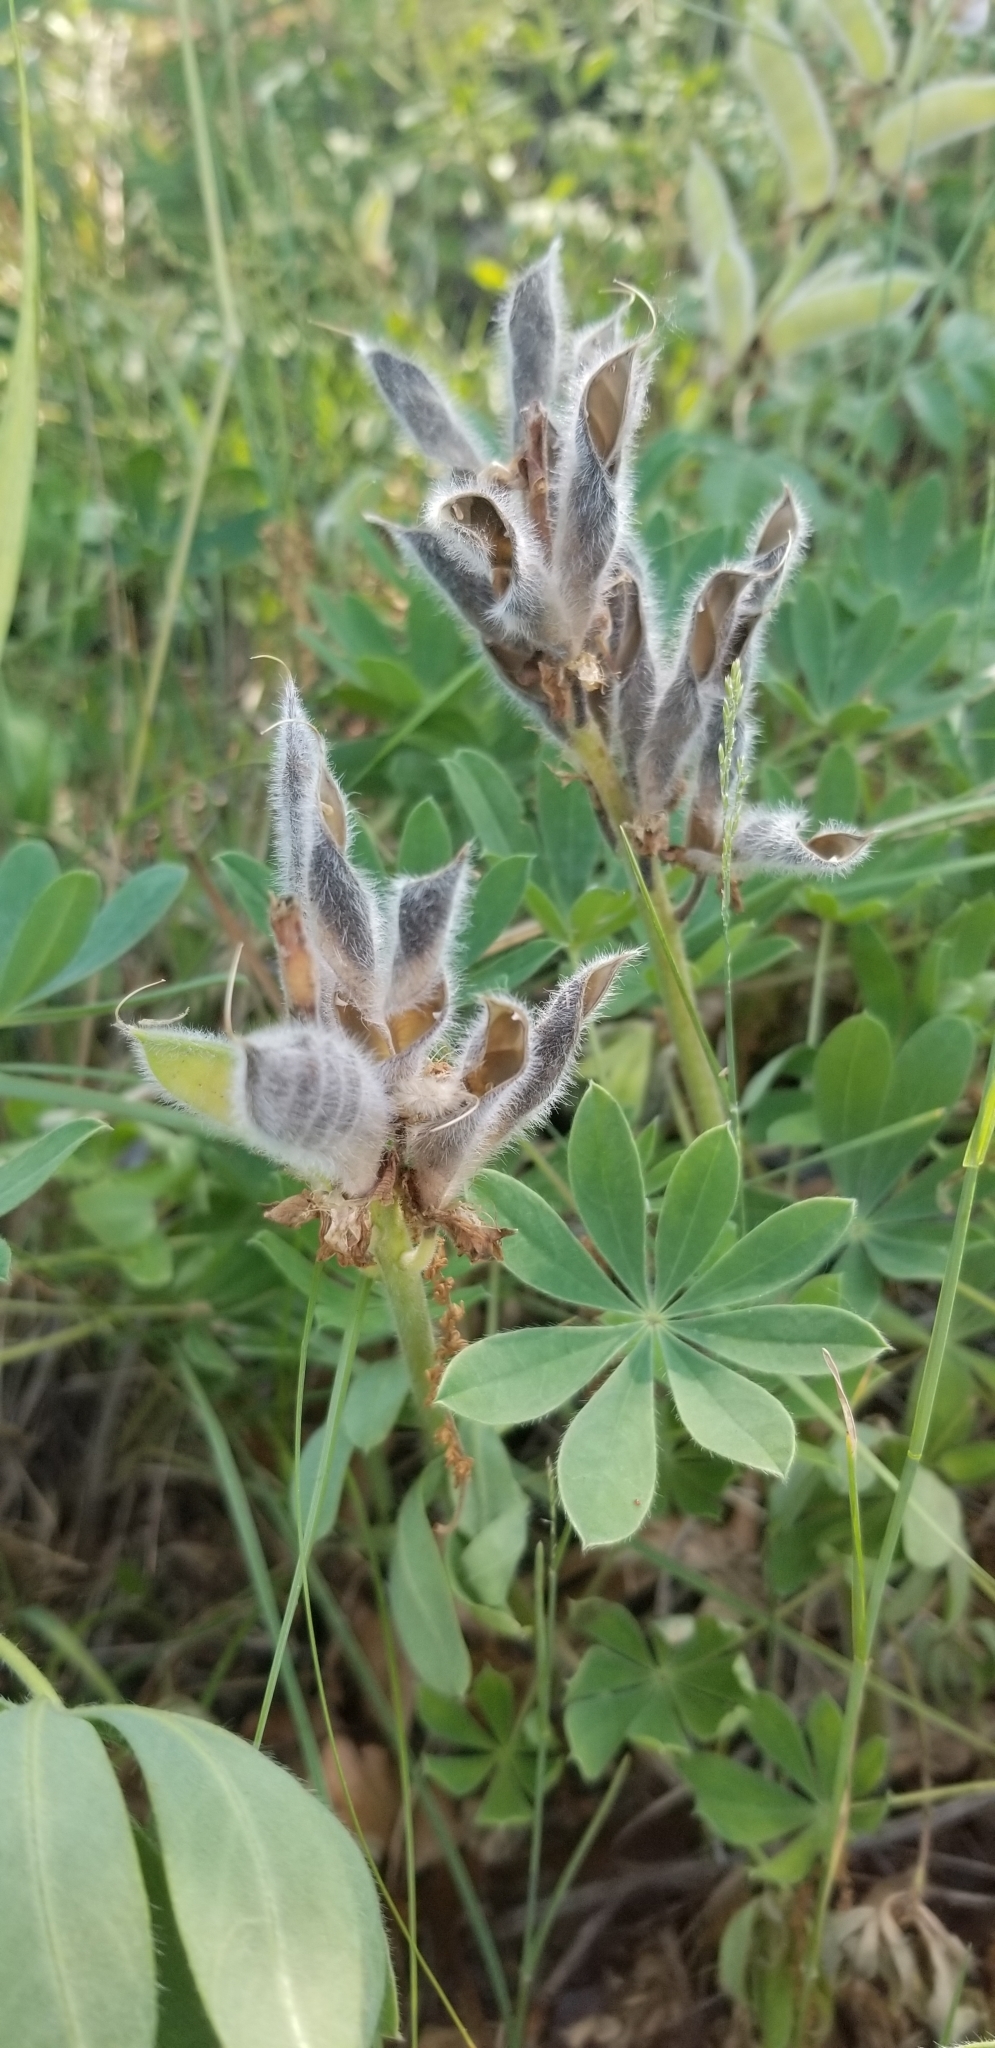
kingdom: Plantae
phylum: Tracheophyta
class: Magnoliopsida
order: Fabales
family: Fabaceae
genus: Lupinus
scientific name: Lupinus perennis
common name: Sundial lupine
